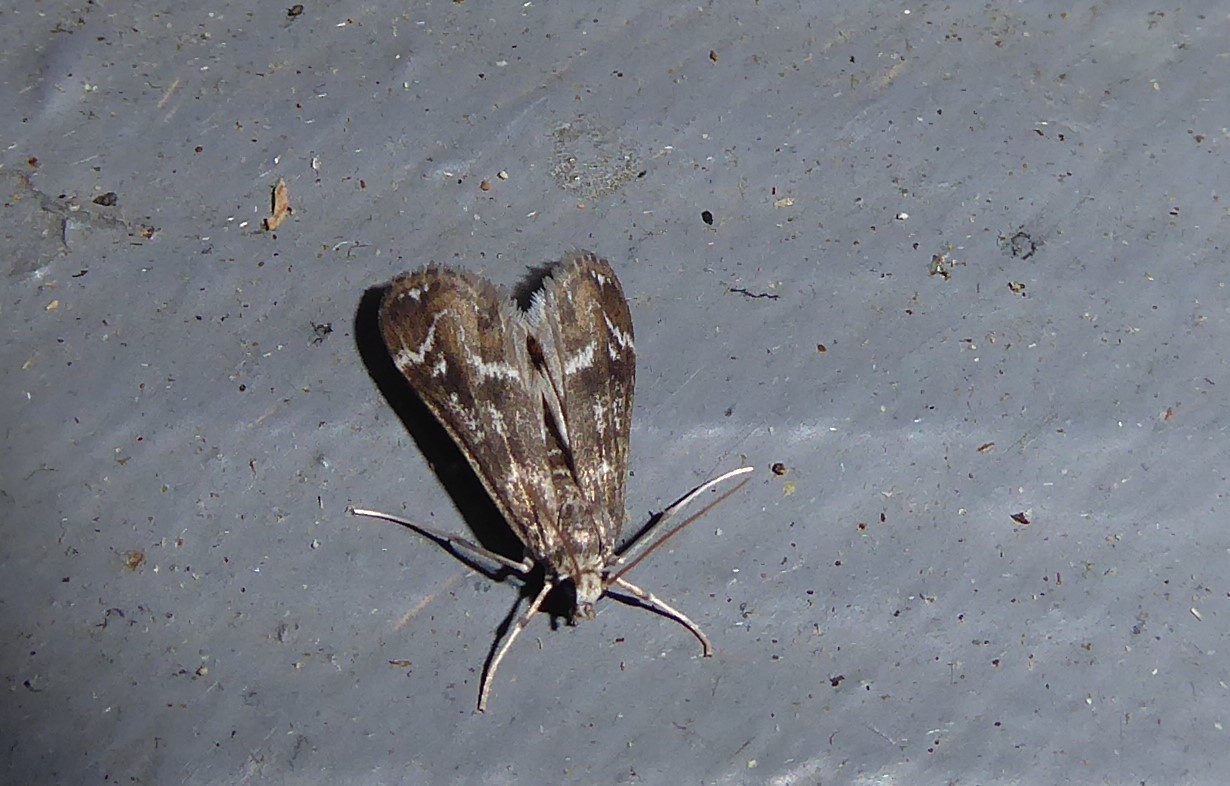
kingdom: Animalia
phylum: Arthropoda
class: Insecta
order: Lepidoptera
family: Crambidae
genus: Hygraula
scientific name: Hygraula nitens
